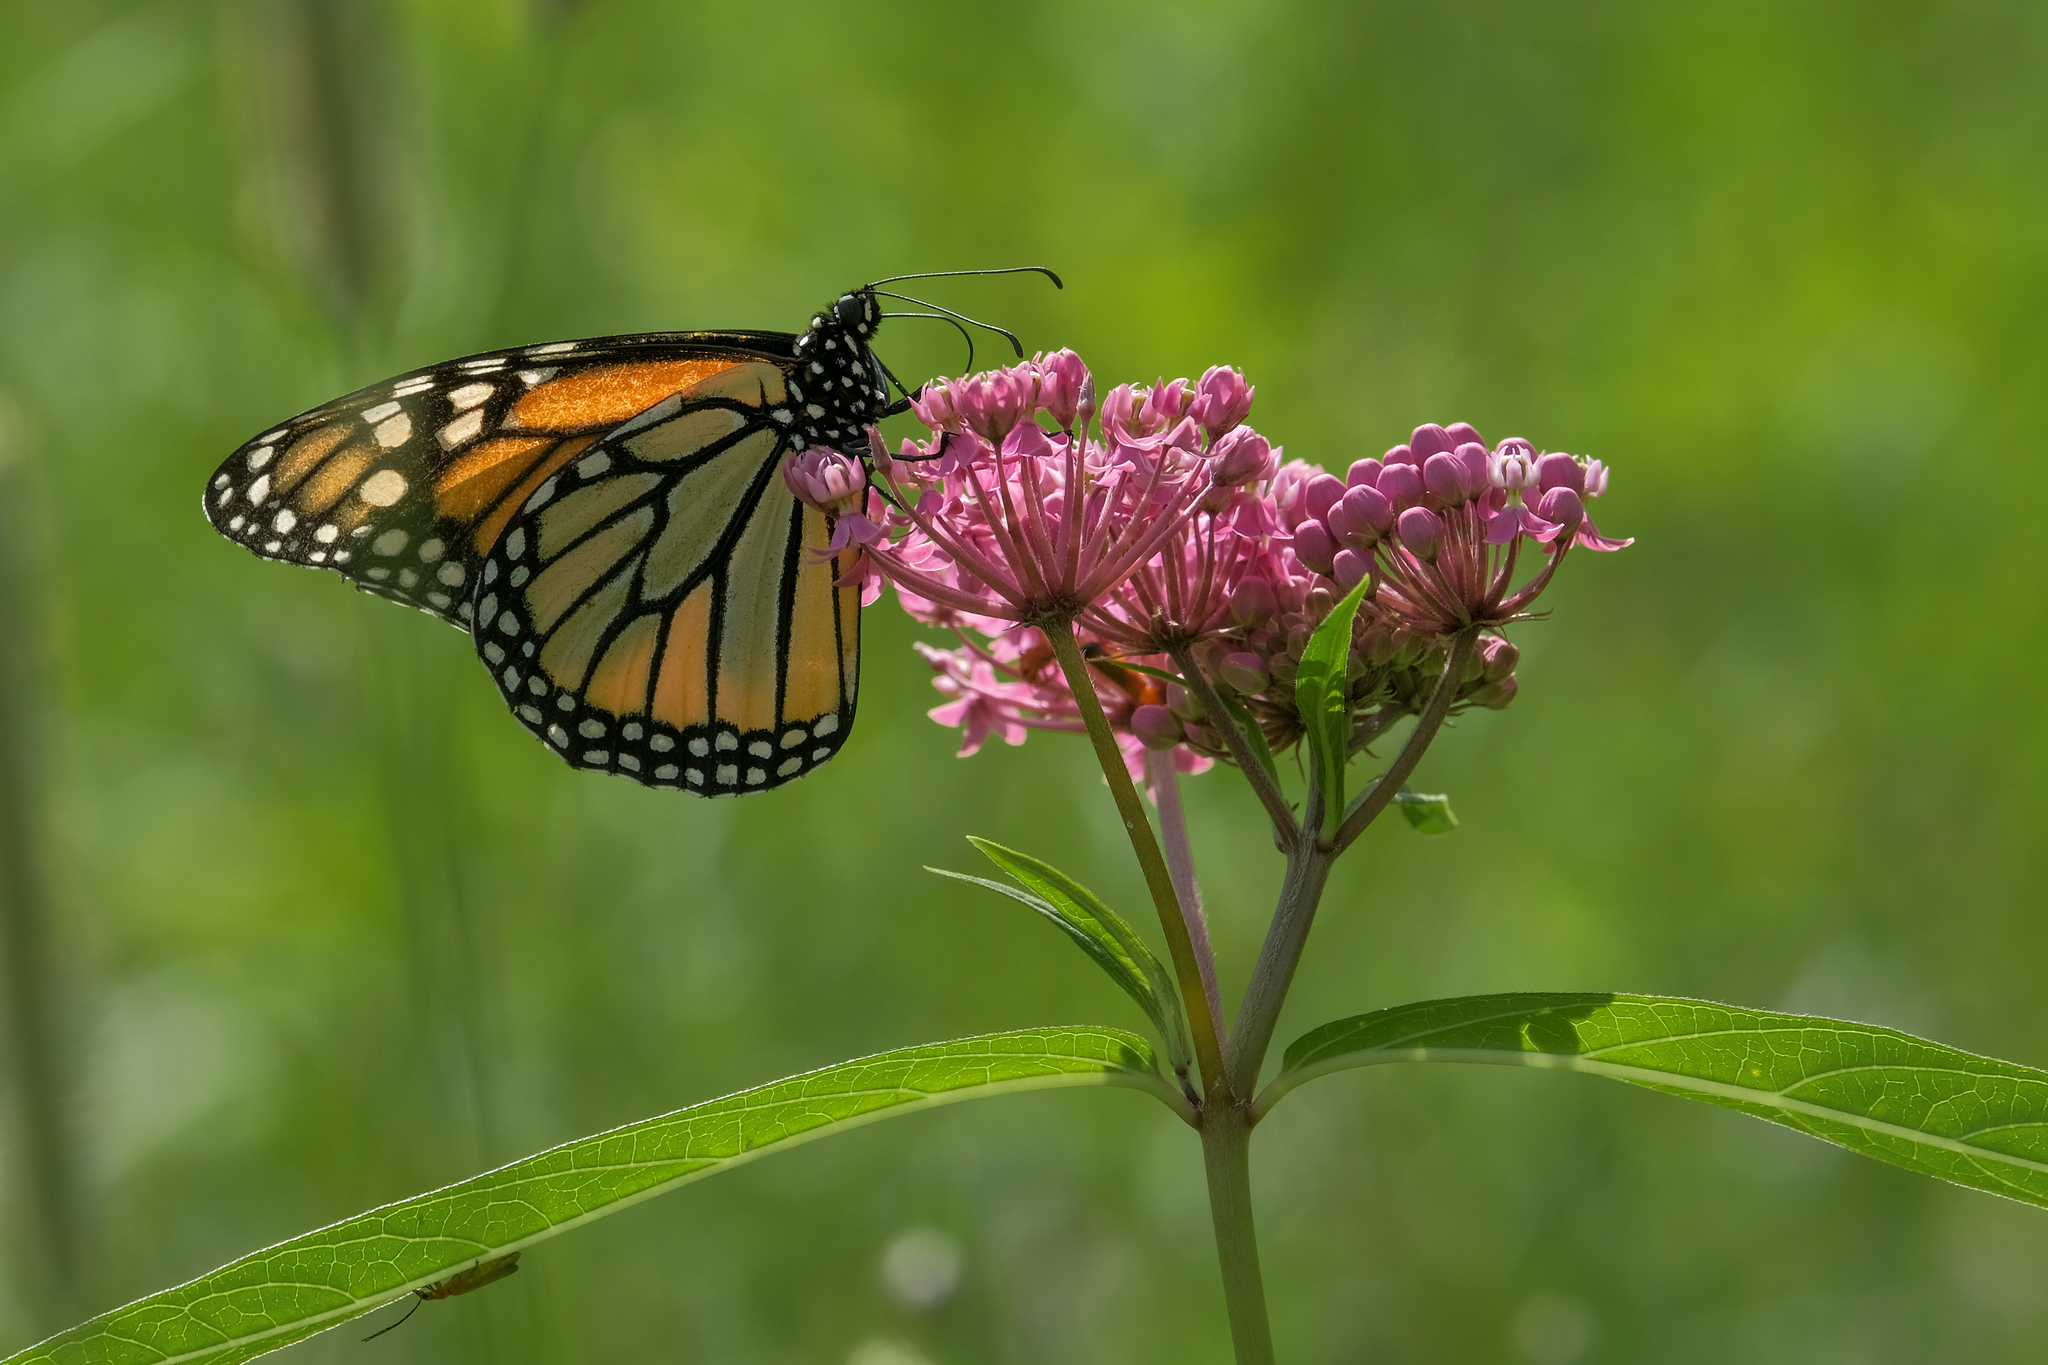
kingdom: Animalia
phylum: Arthropoda
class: Insecta
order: Lepidoptera
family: Nymphalidae
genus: Danaus
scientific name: Danaus plexippus
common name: Monarch
